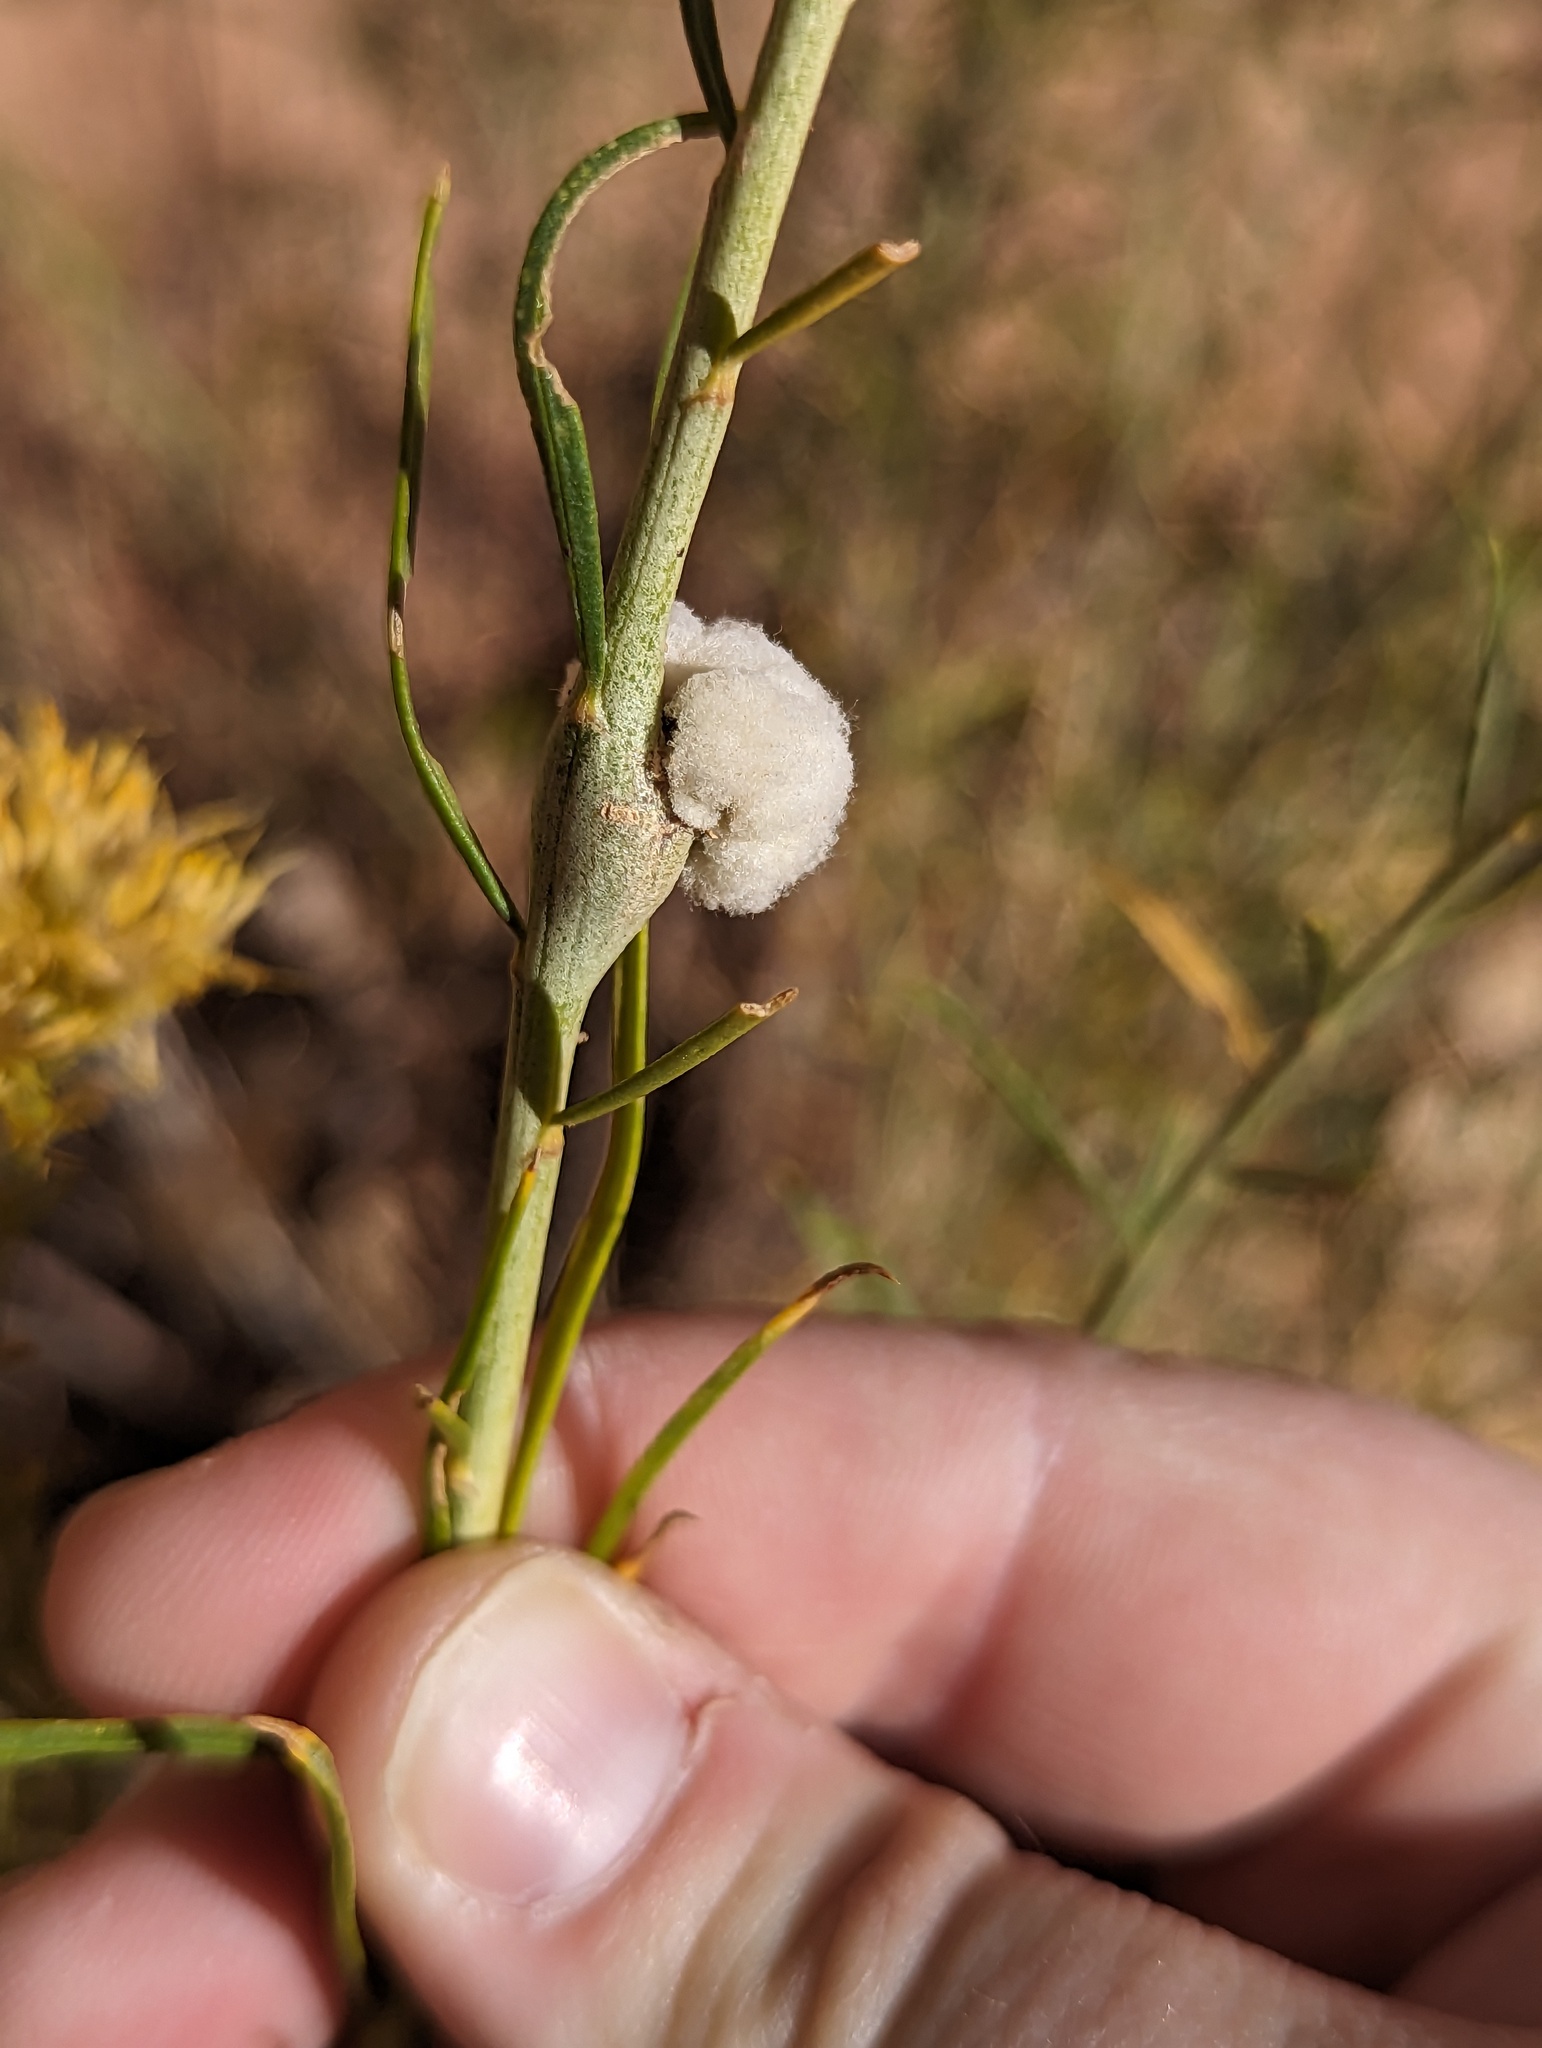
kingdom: Animalia
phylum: Arthropoda
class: Insecta
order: Diptera
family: Tephritidae
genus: Aciurina
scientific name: Aciurina bigeloviae
